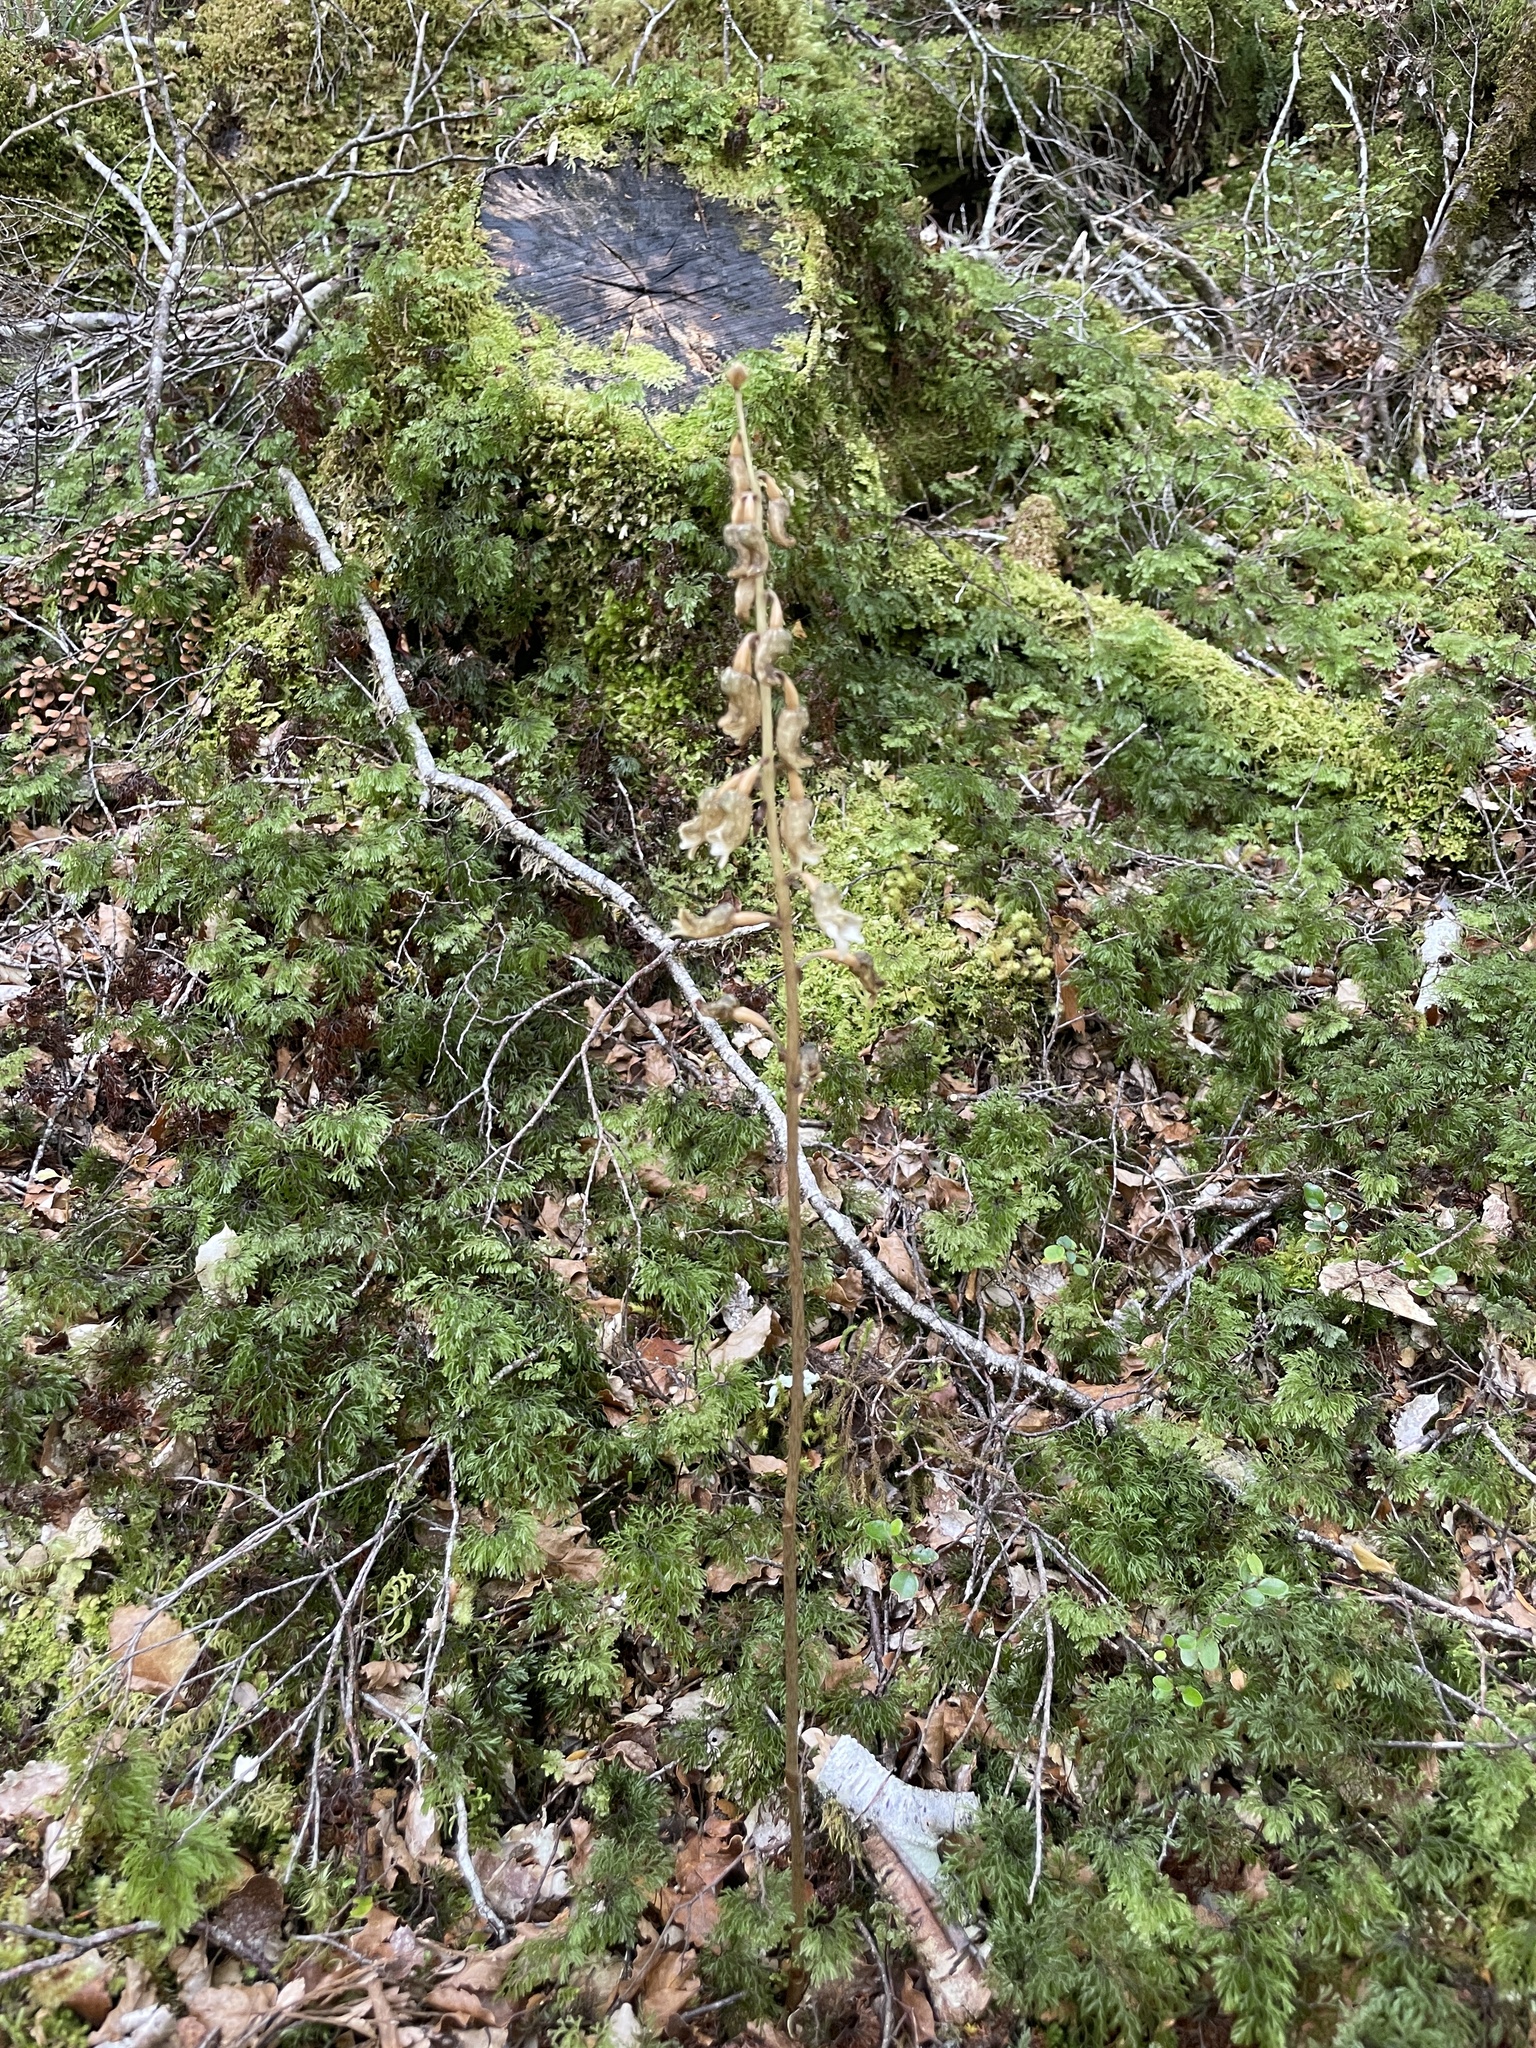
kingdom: Plantae
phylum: Tracheophyta
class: Liliopsida
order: Asparagales
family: Orchidaceae
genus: Gastrodia
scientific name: Gastrodia cunninghamii
